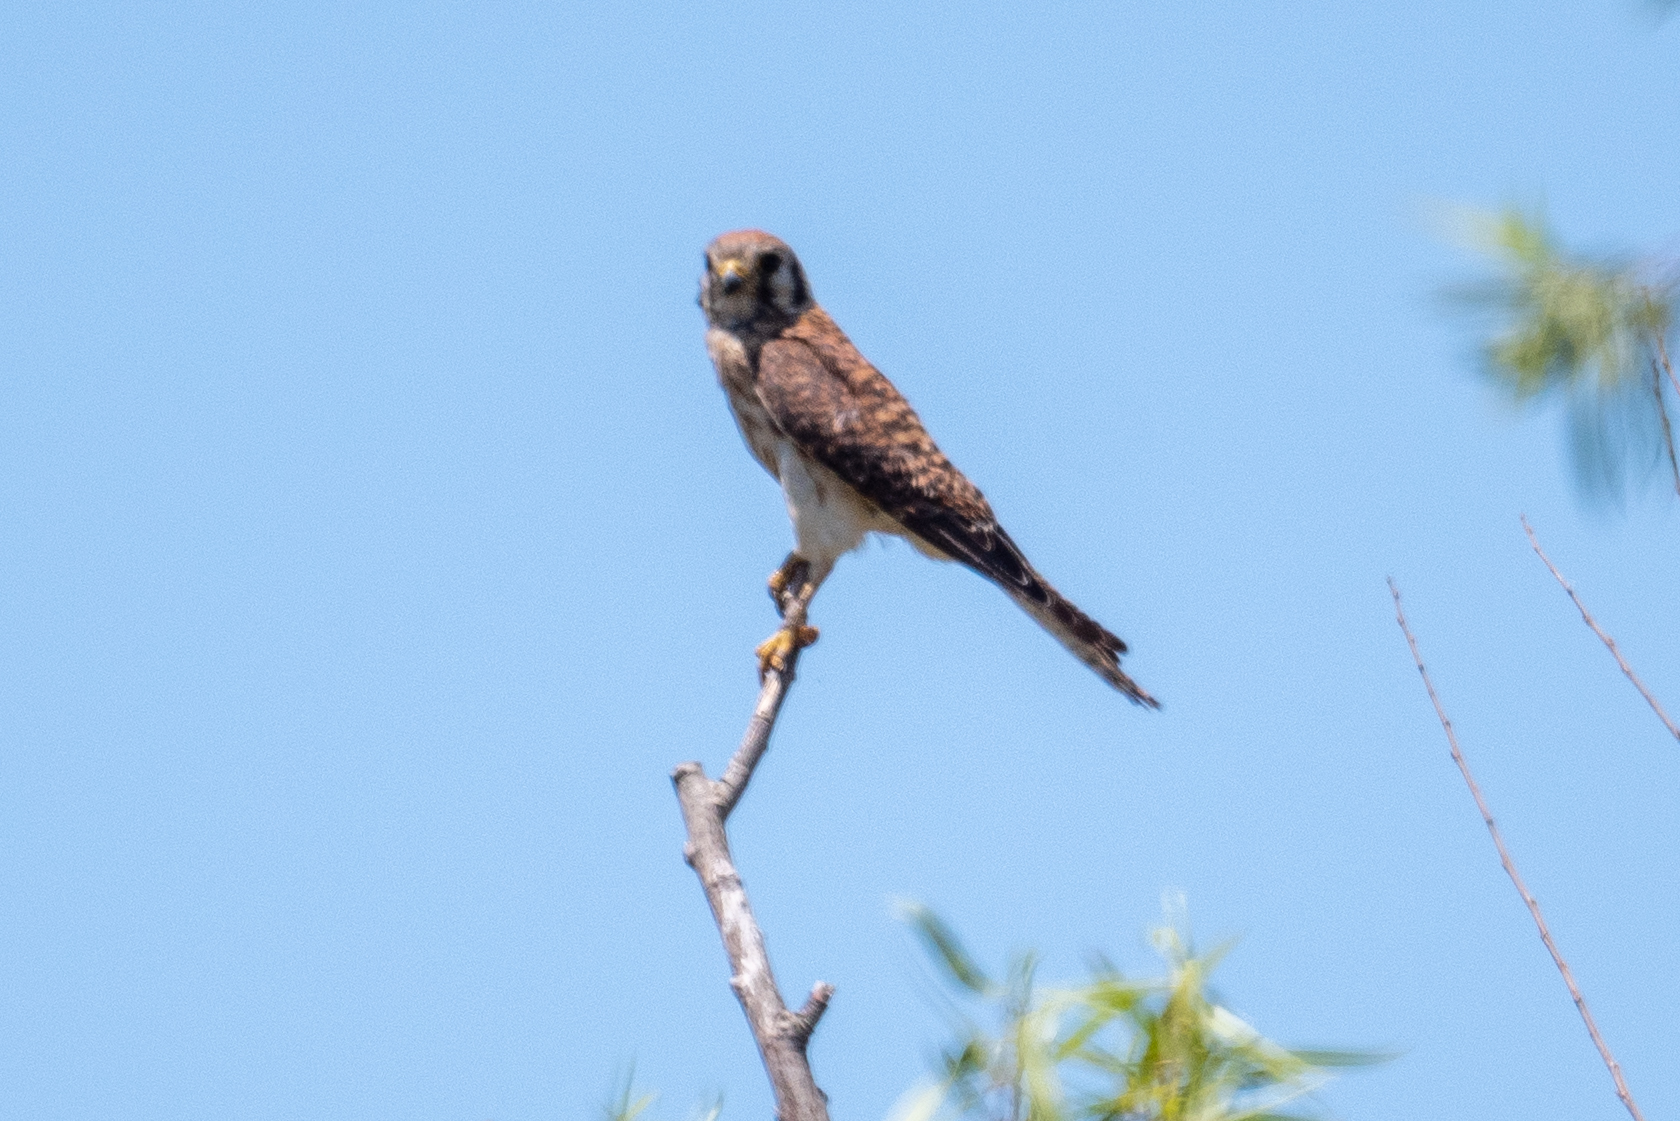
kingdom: Animalia
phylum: Chordata
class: Aves
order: Falconiformes
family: Falconidae
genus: Falco
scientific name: Falco sparverius
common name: American kestrel
